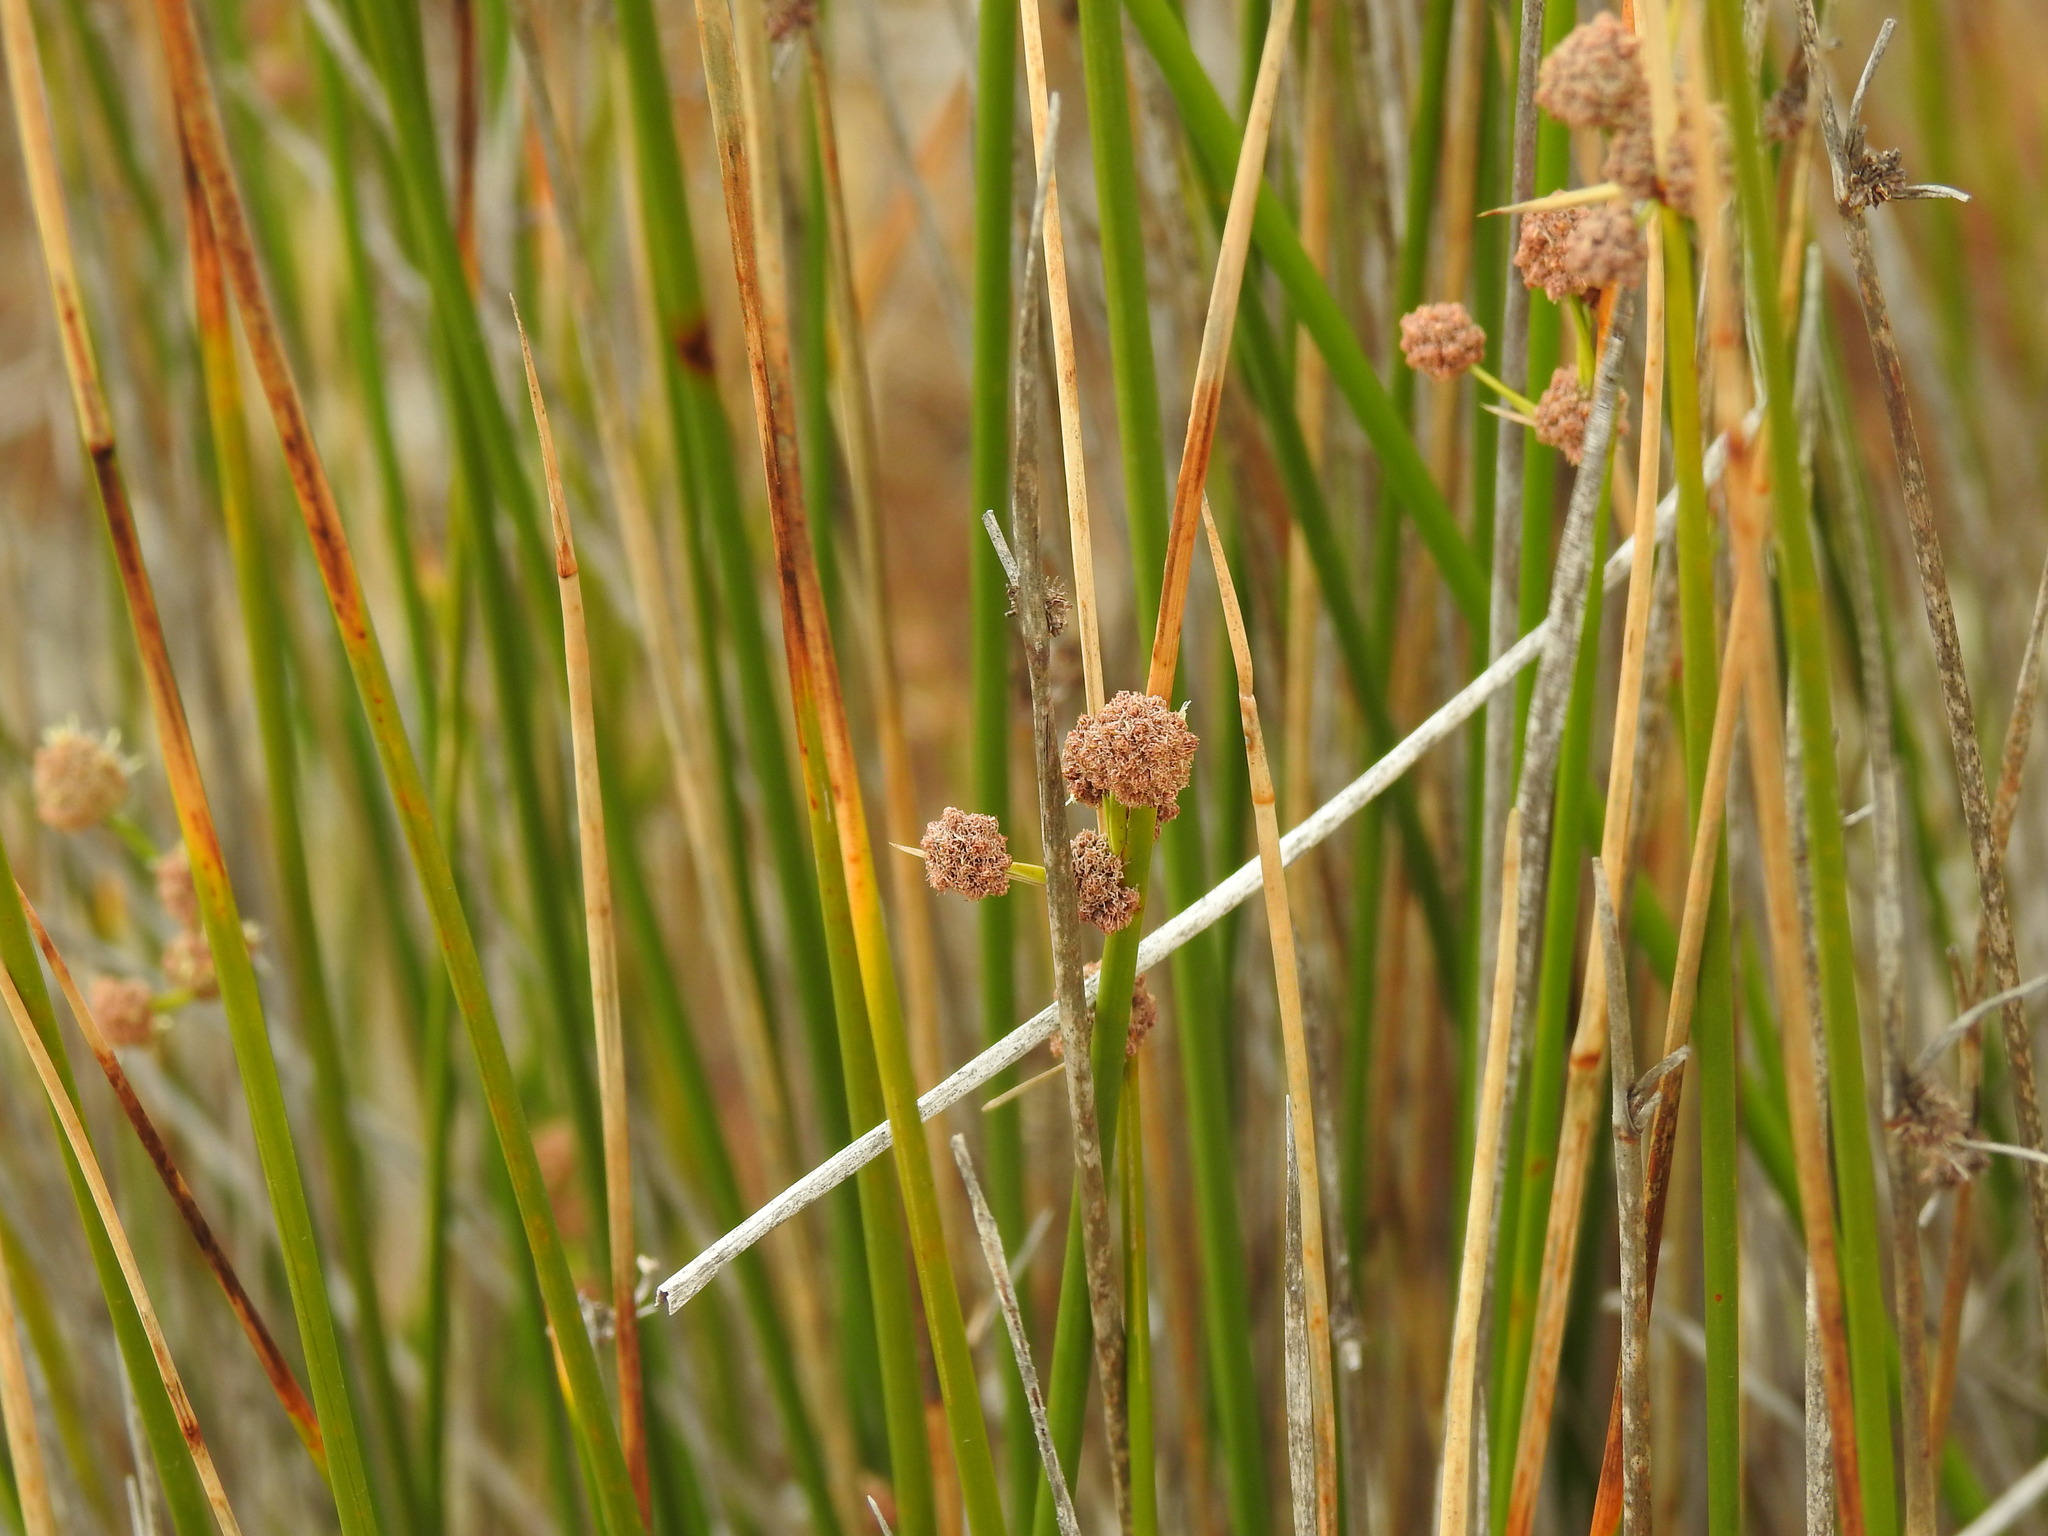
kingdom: Plantae
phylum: Tracheophyta
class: Liliopsida
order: Poales
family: Cyperaceae
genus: Scirpoides
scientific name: Scirpoides holoschoenus
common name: Round-headed club-rush
